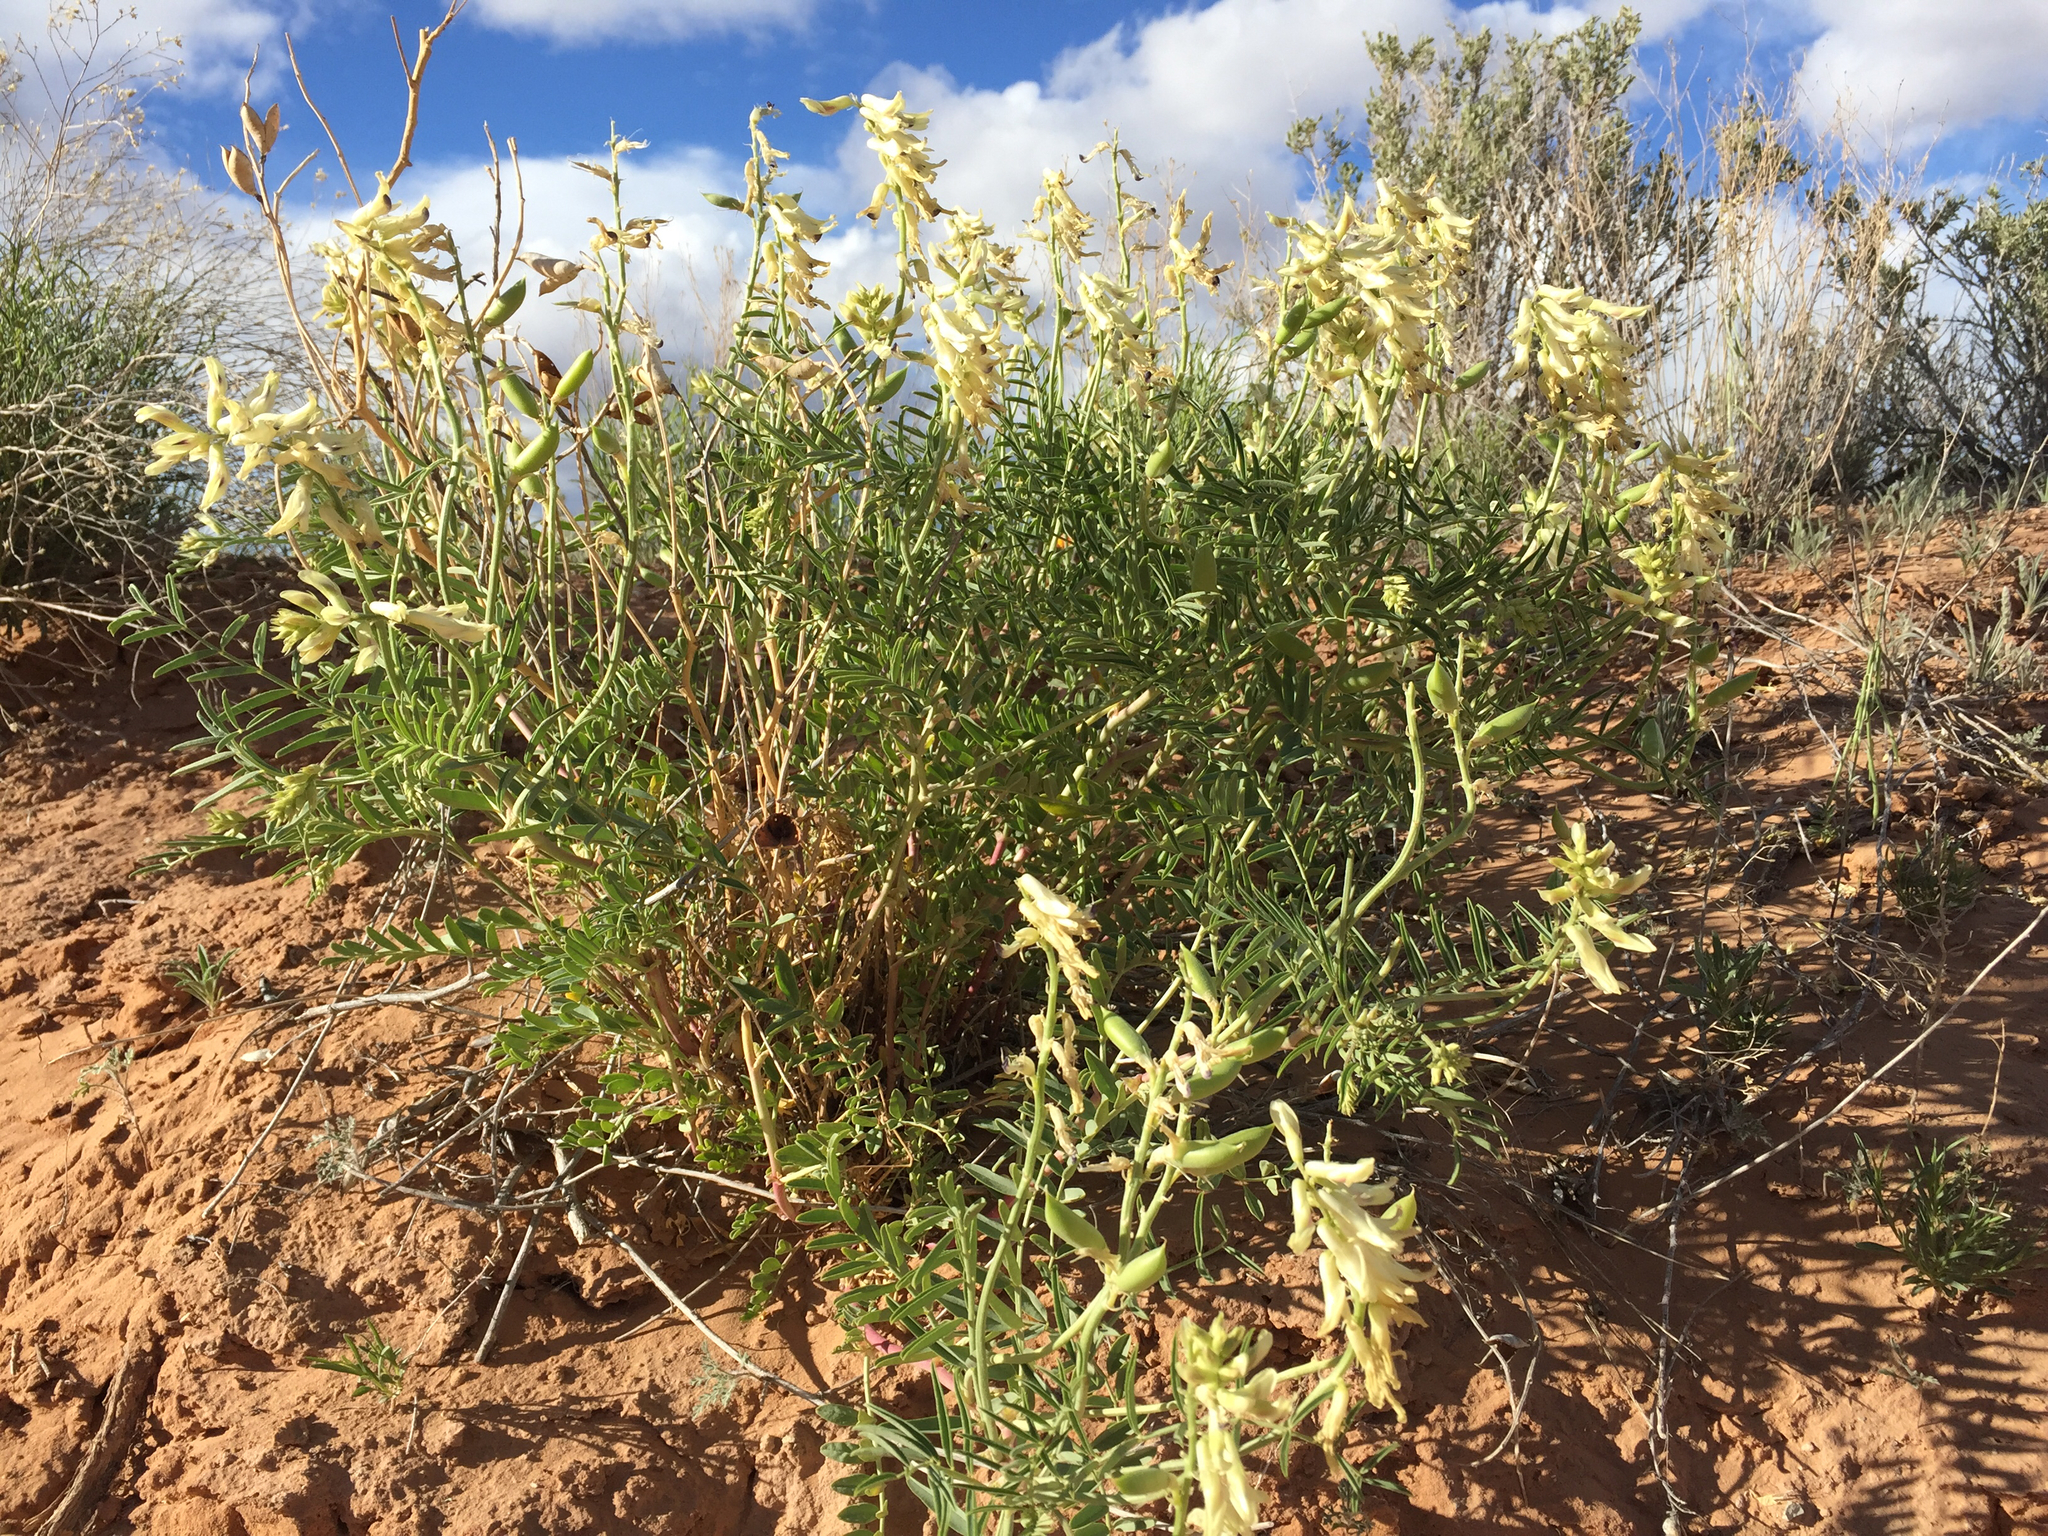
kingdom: Plantae
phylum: Tracheophyta
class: Magnoliopsida
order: Fabales
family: Fabaceae
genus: Astragalus
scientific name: Astragalus praelongus
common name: Stinking milk-vetch
